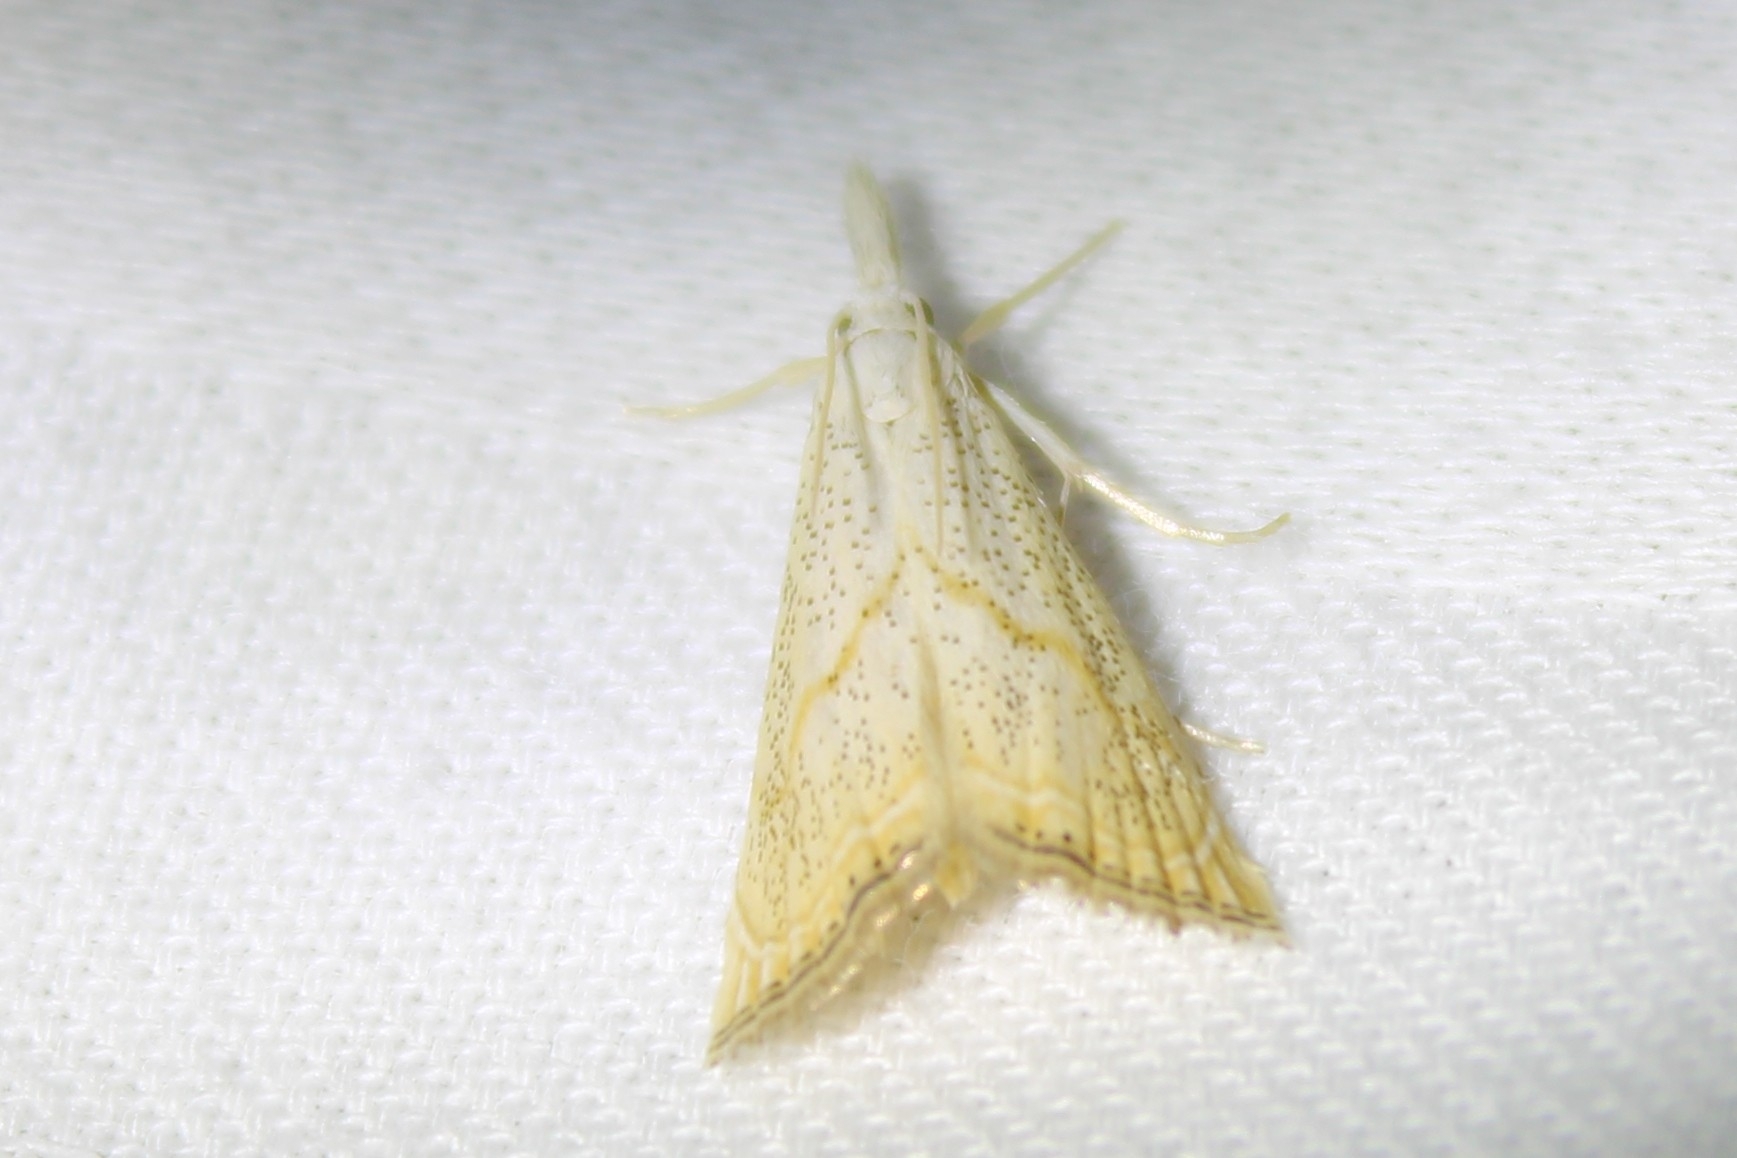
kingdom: Animalia
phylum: Arthropoda
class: Insecta
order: Lepidoptera
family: Crambidae
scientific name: Crambidae
